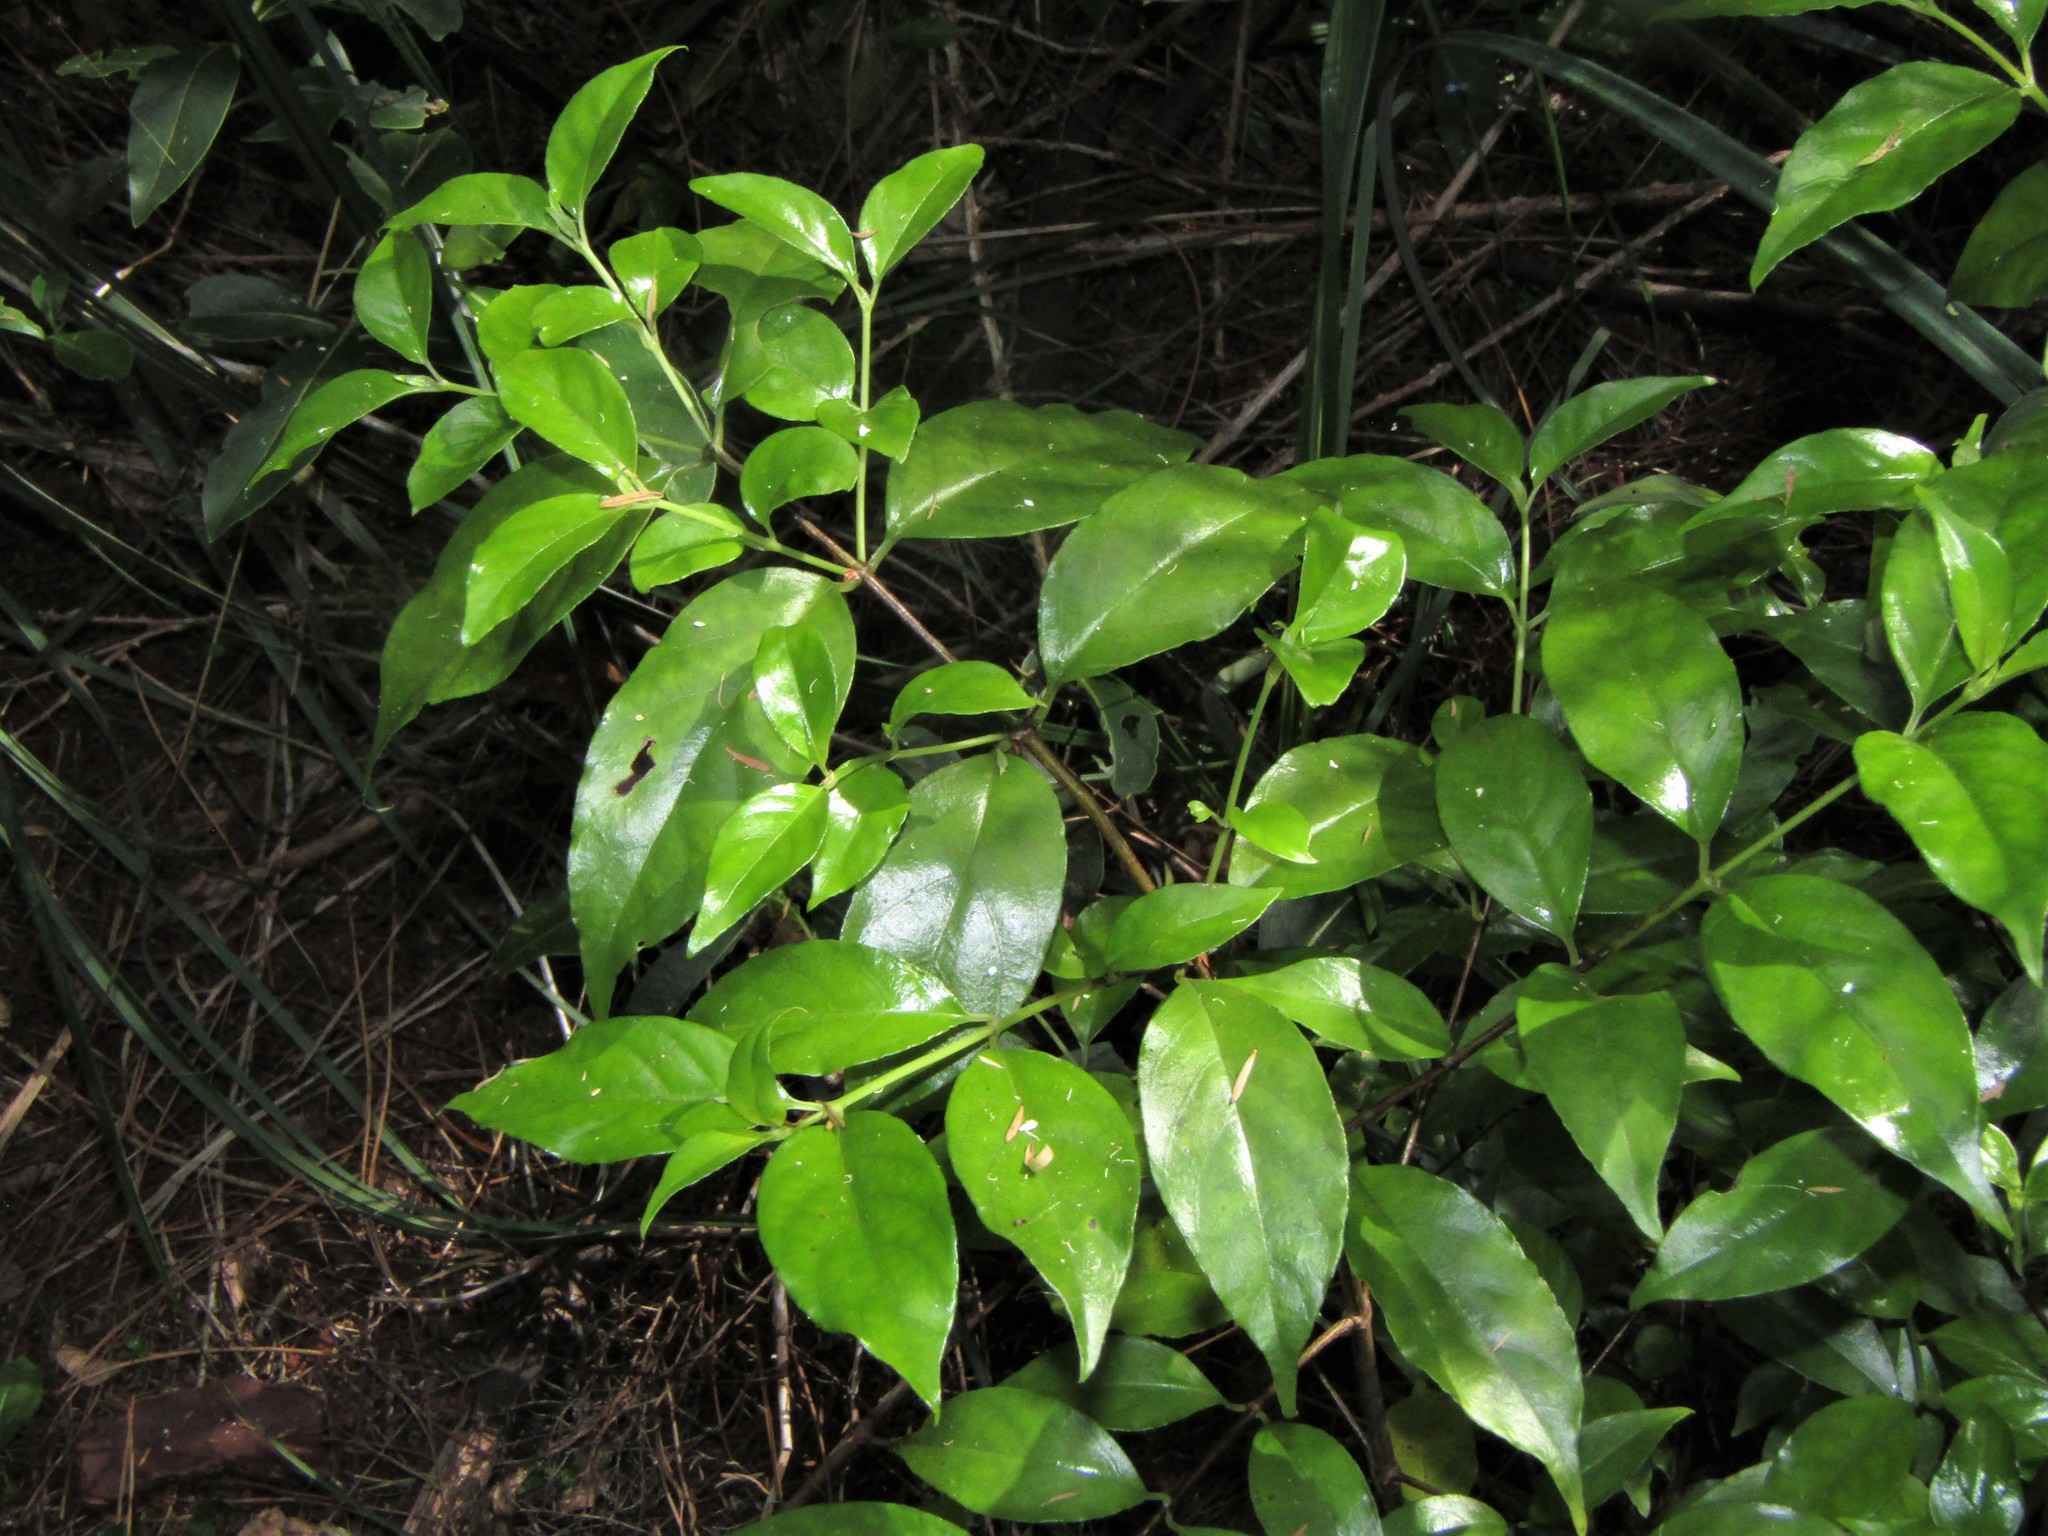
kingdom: Plantae
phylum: Tracheophyta
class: Magnoliopsida
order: Gentianales
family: Loganiaceae
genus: Geniostoma
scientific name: Geniostoma ligustrifolium
